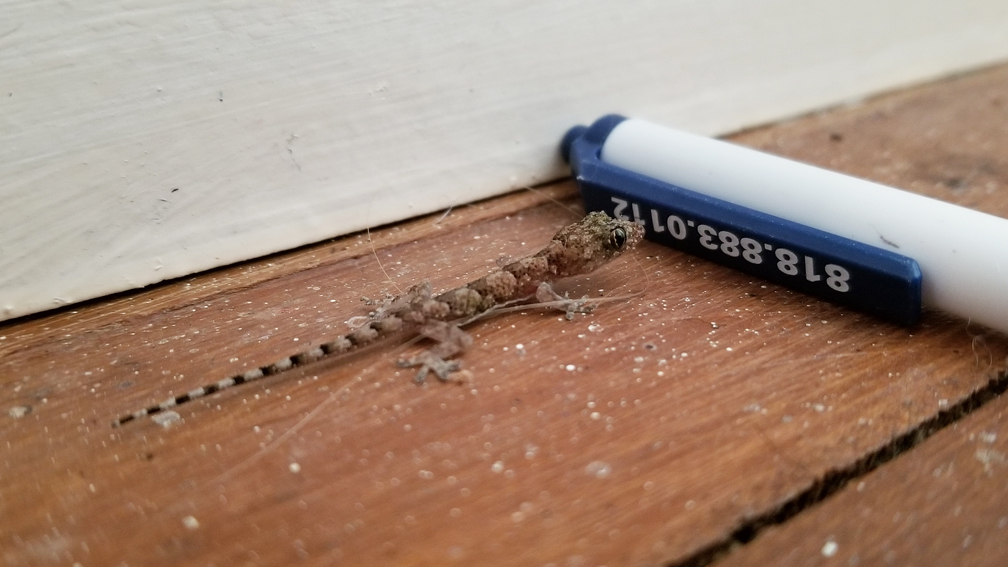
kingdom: Animalia
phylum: Chordata
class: Squamata
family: Gekkonidae
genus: Hemidactylus
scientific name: Hemidactylus mabouia
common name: House gecko
